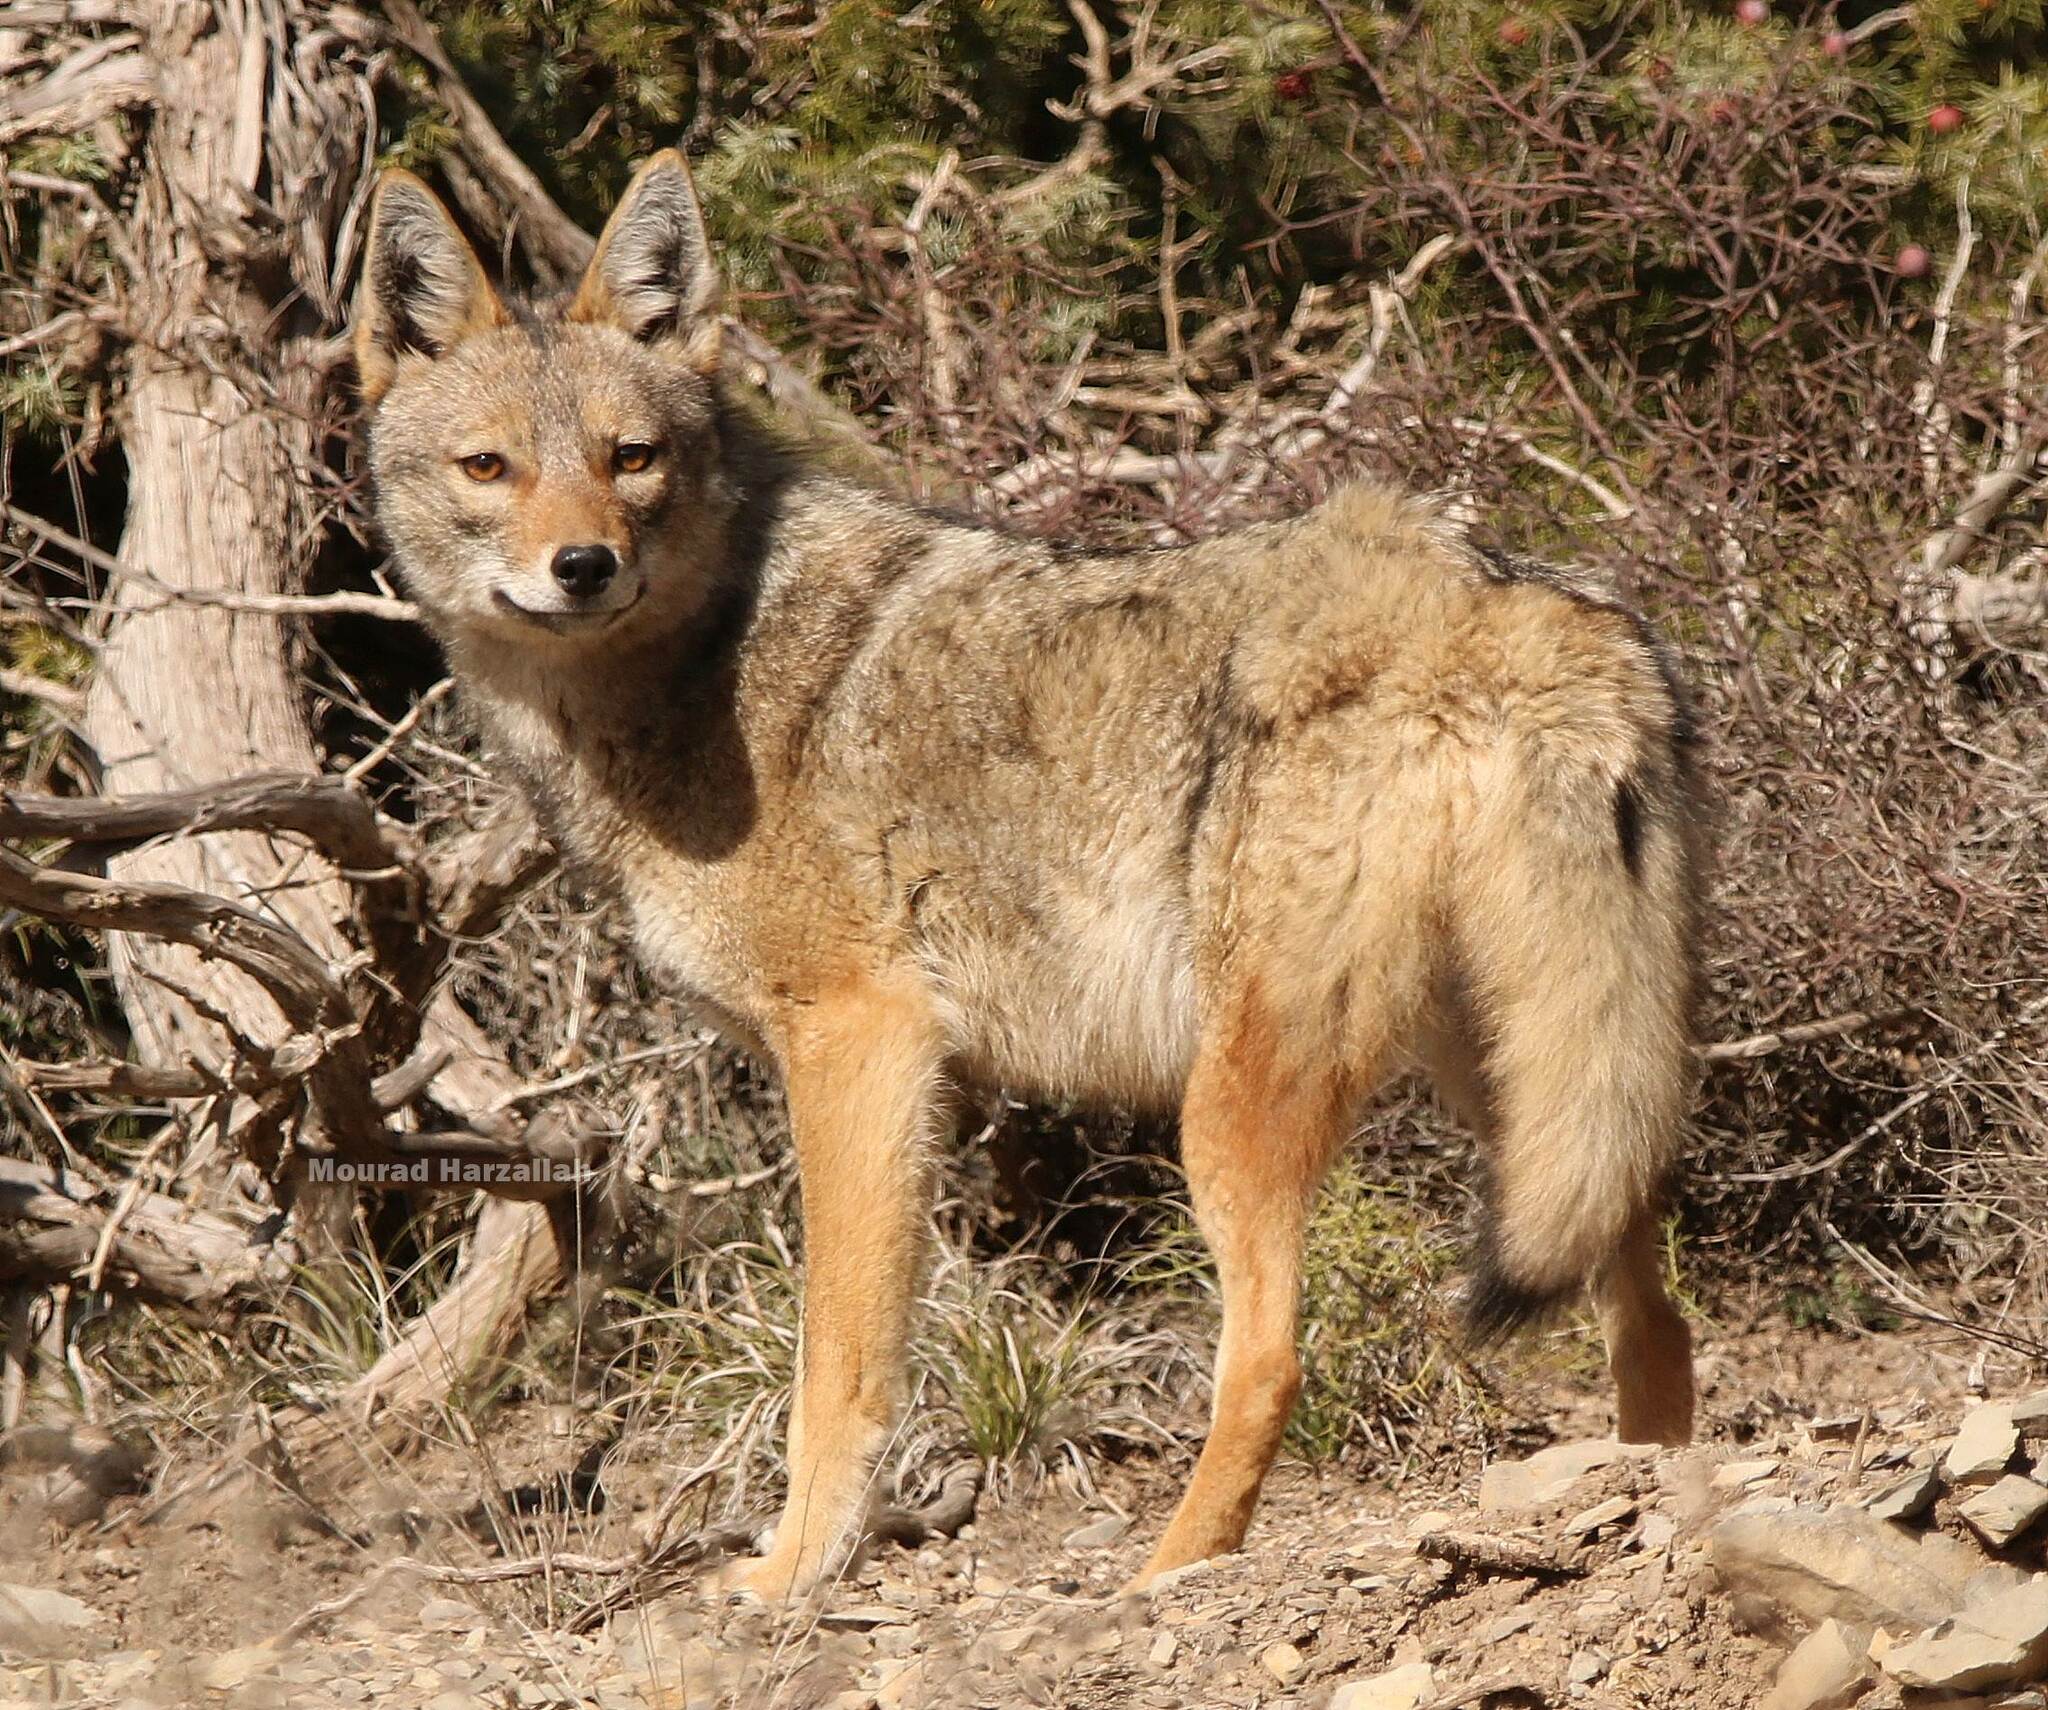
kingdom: Animalia
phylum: Chordata
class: Mammalia
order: Carnivora
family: Canidae
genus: Canis
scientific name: Canis lupaster
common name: African golden wolf
